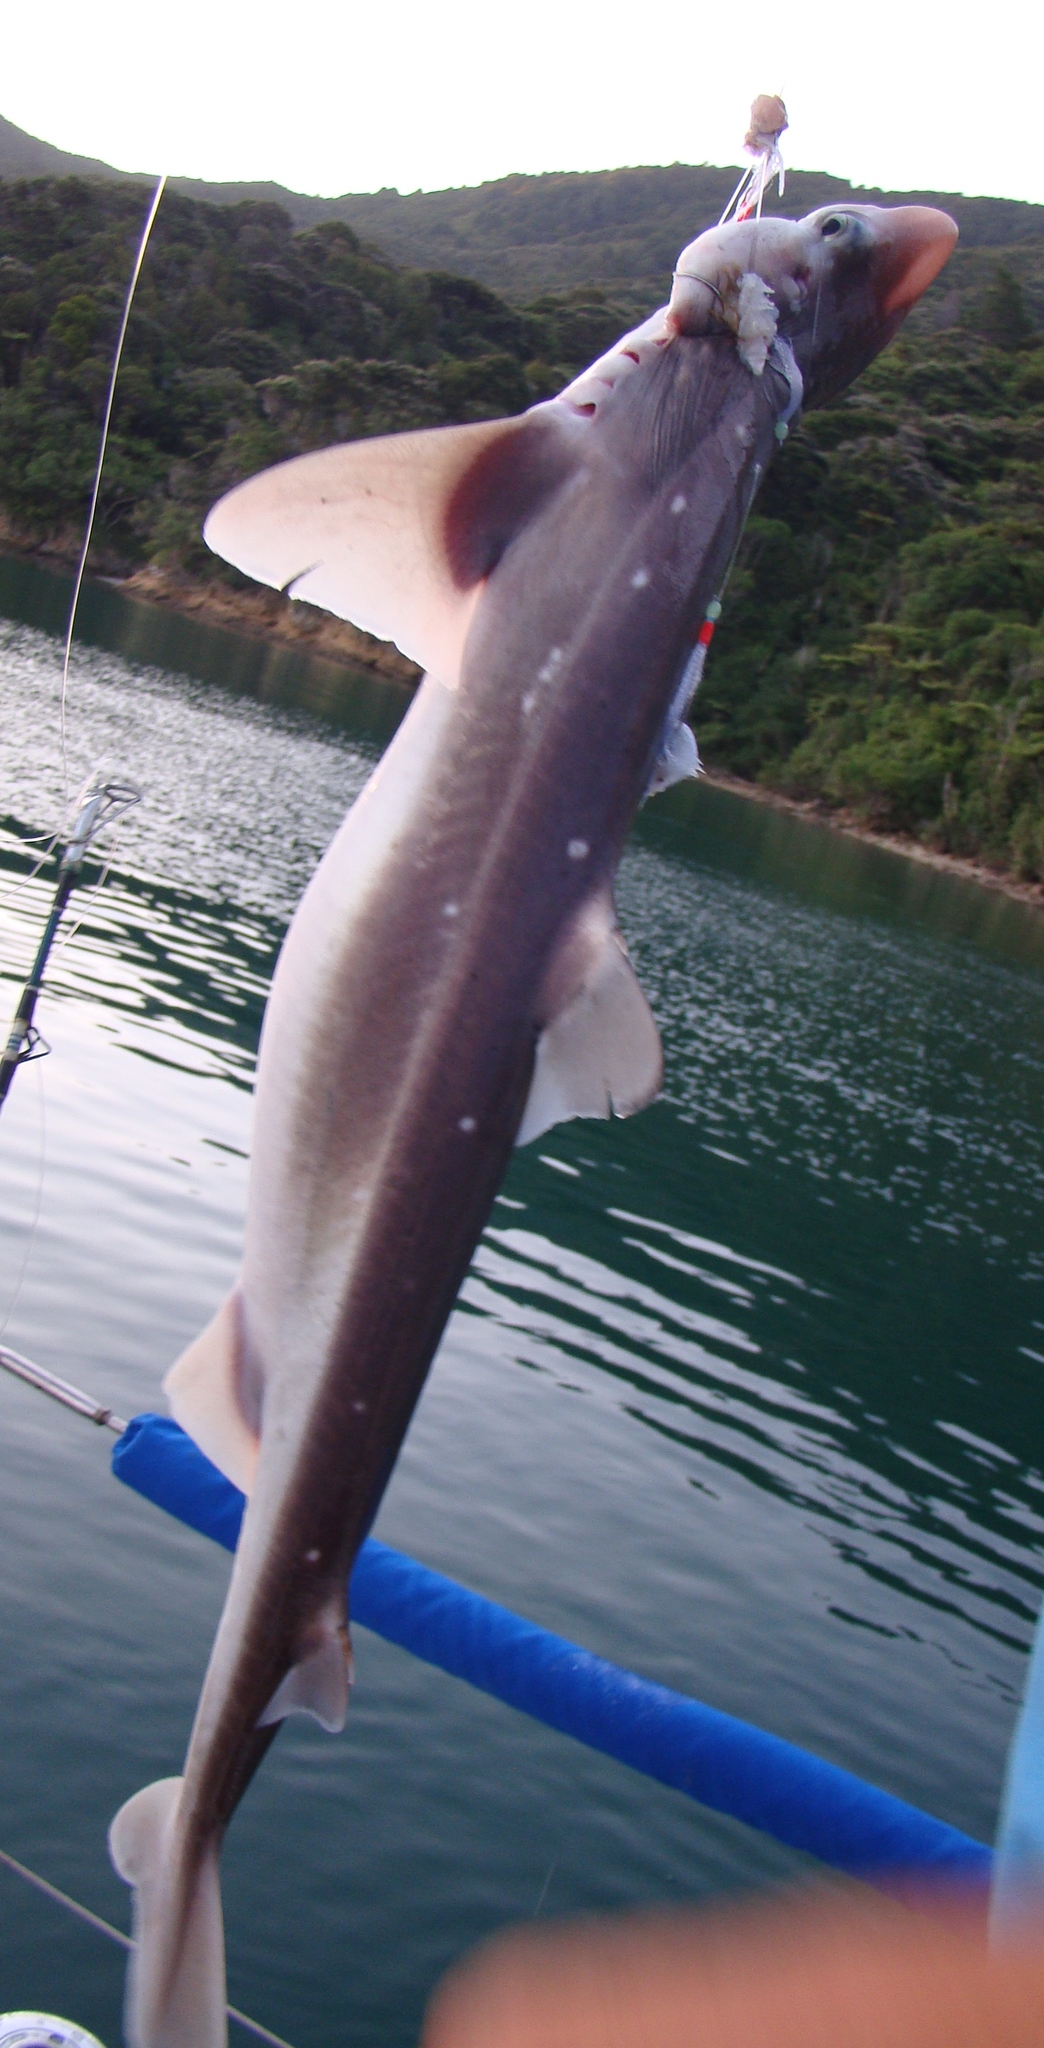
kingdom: Animalia
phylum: Chordata
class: Elasmobranchii
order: Squaliformes
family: Squalidae
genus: Squalus
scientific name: Squalus acanthias
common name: Spurdog
